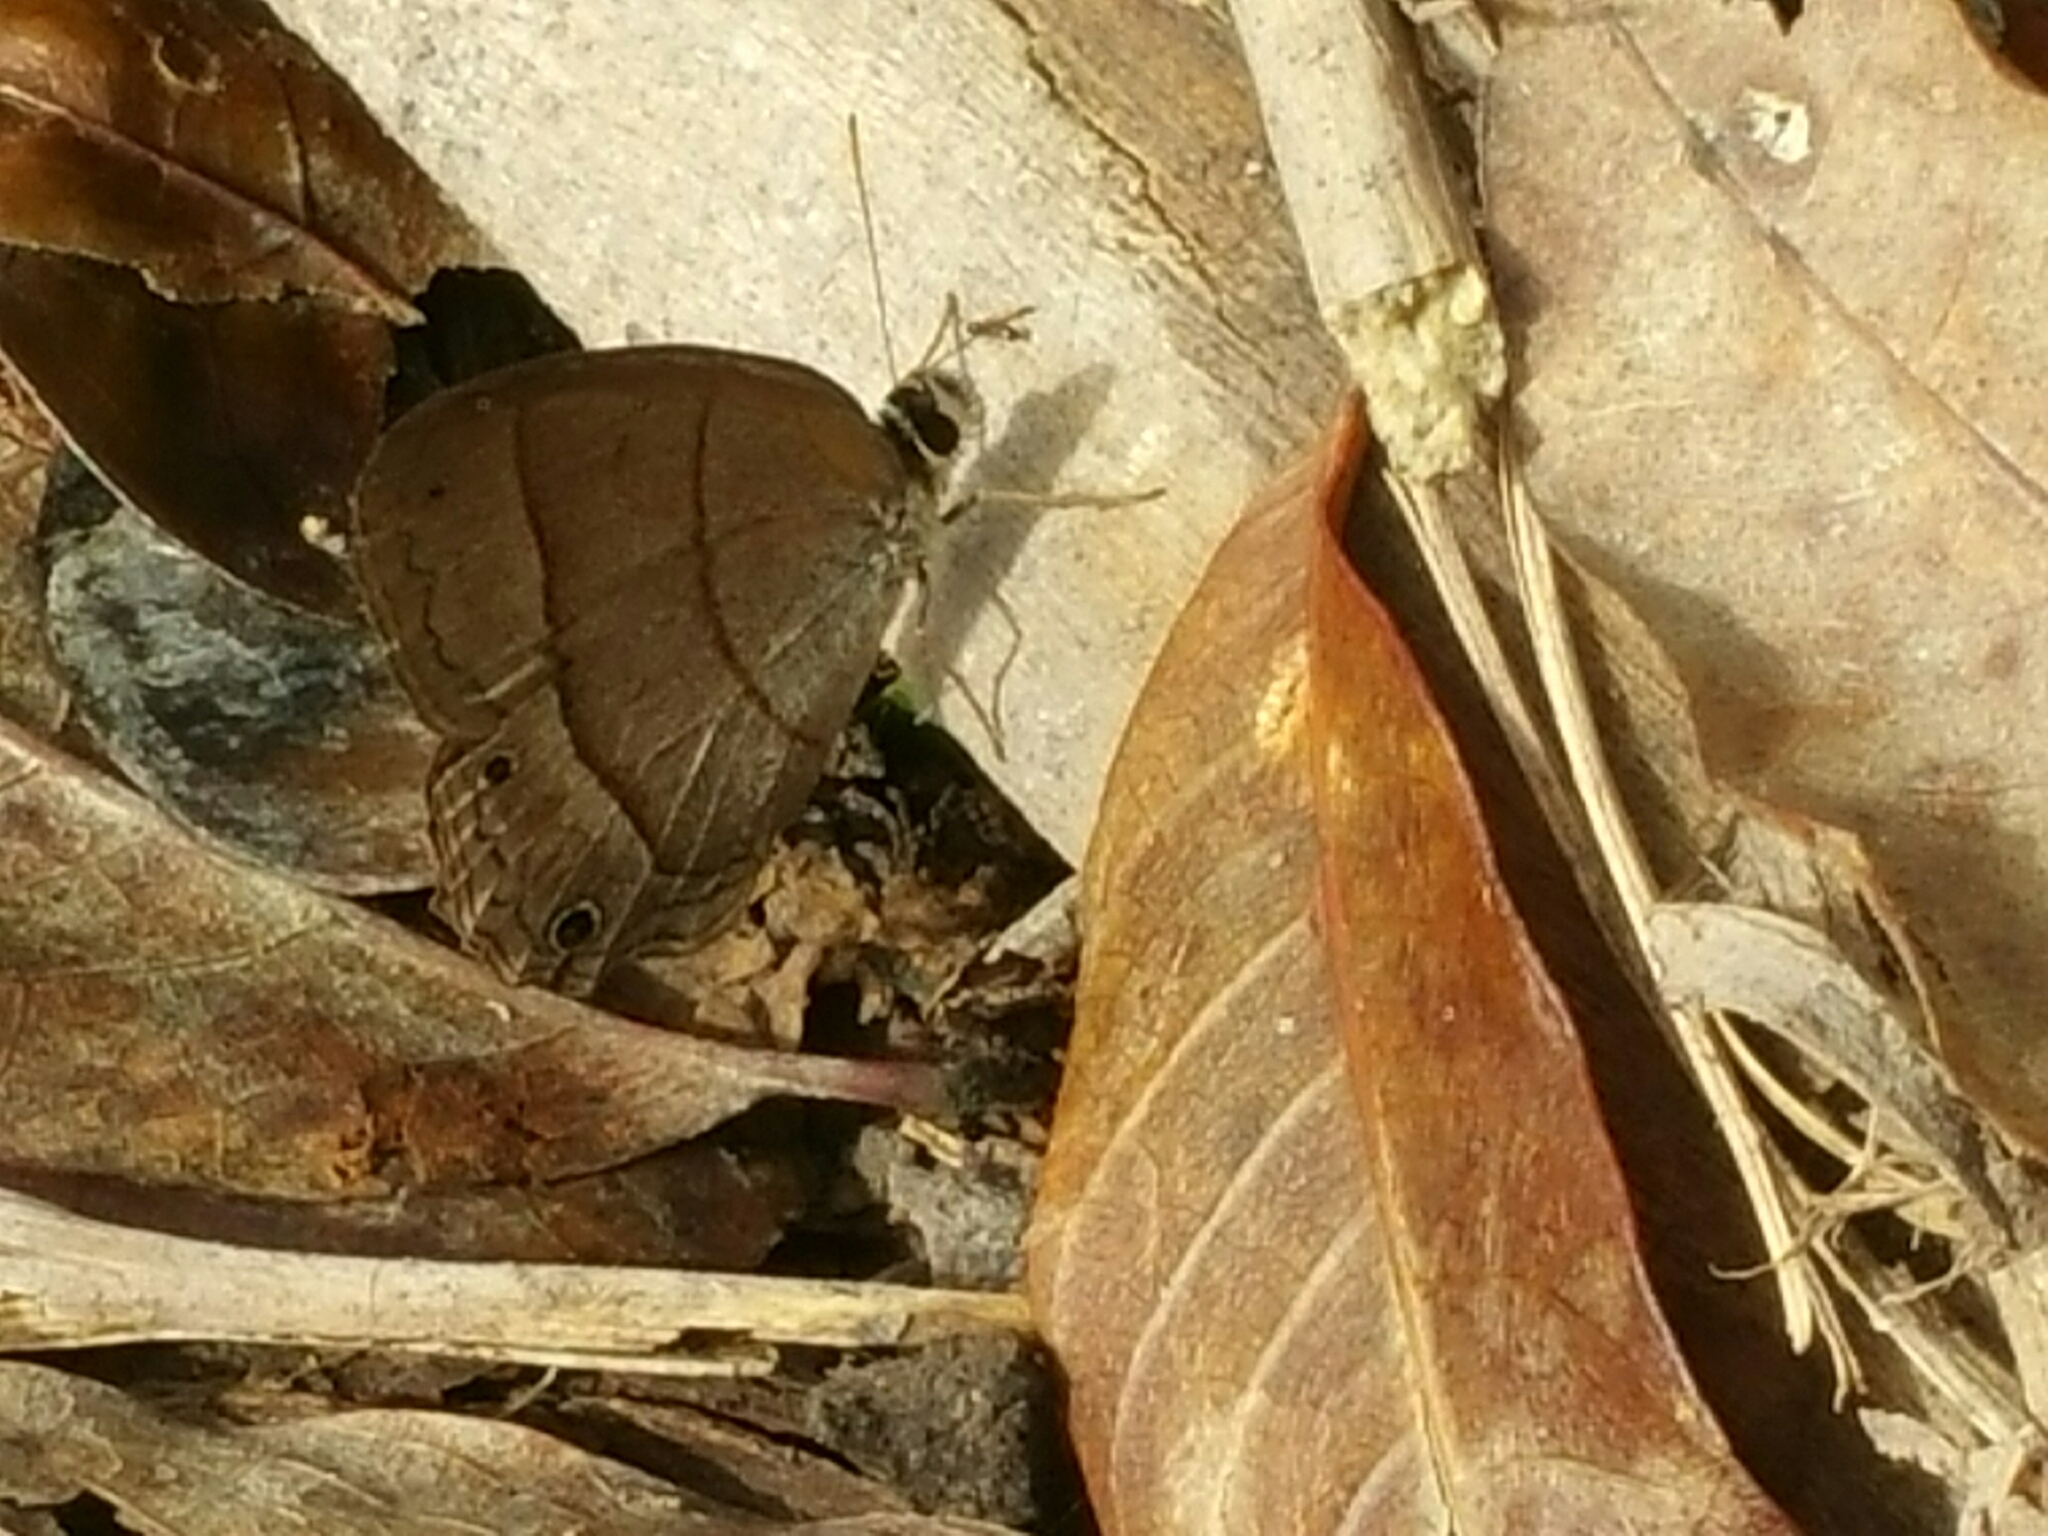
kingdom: Animalia
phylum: Arthropoda
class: Insecta
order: Lepidoptera
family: Nymphalidae
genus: Euptychia
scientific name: Euptychia Cissia pompilia
